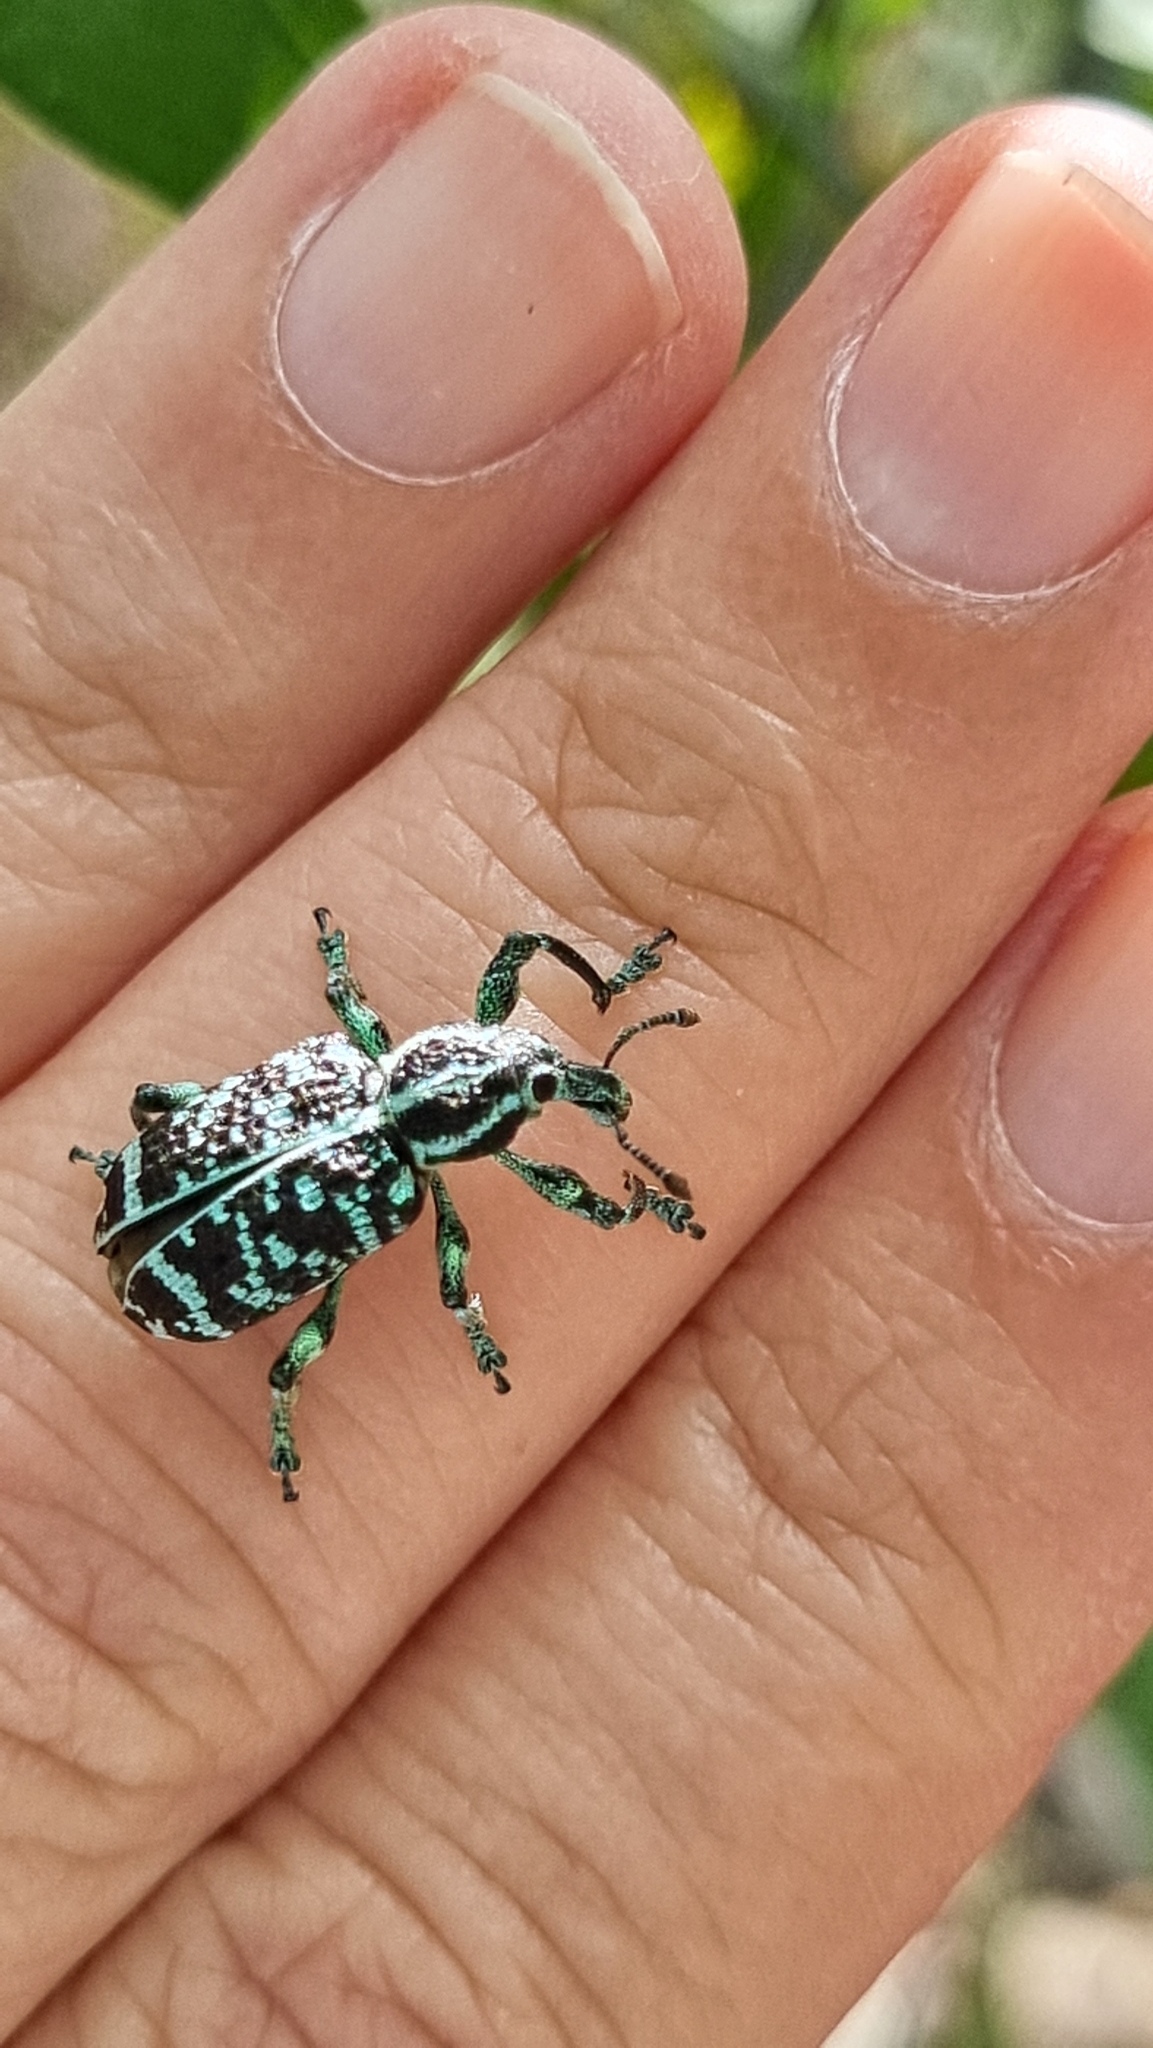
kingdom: Animalia
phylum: Arthropoda
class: Insecta
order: Coleoptera
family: Curculionidae
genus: Chrysolopus
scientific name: Chrysolopus spectabilis
